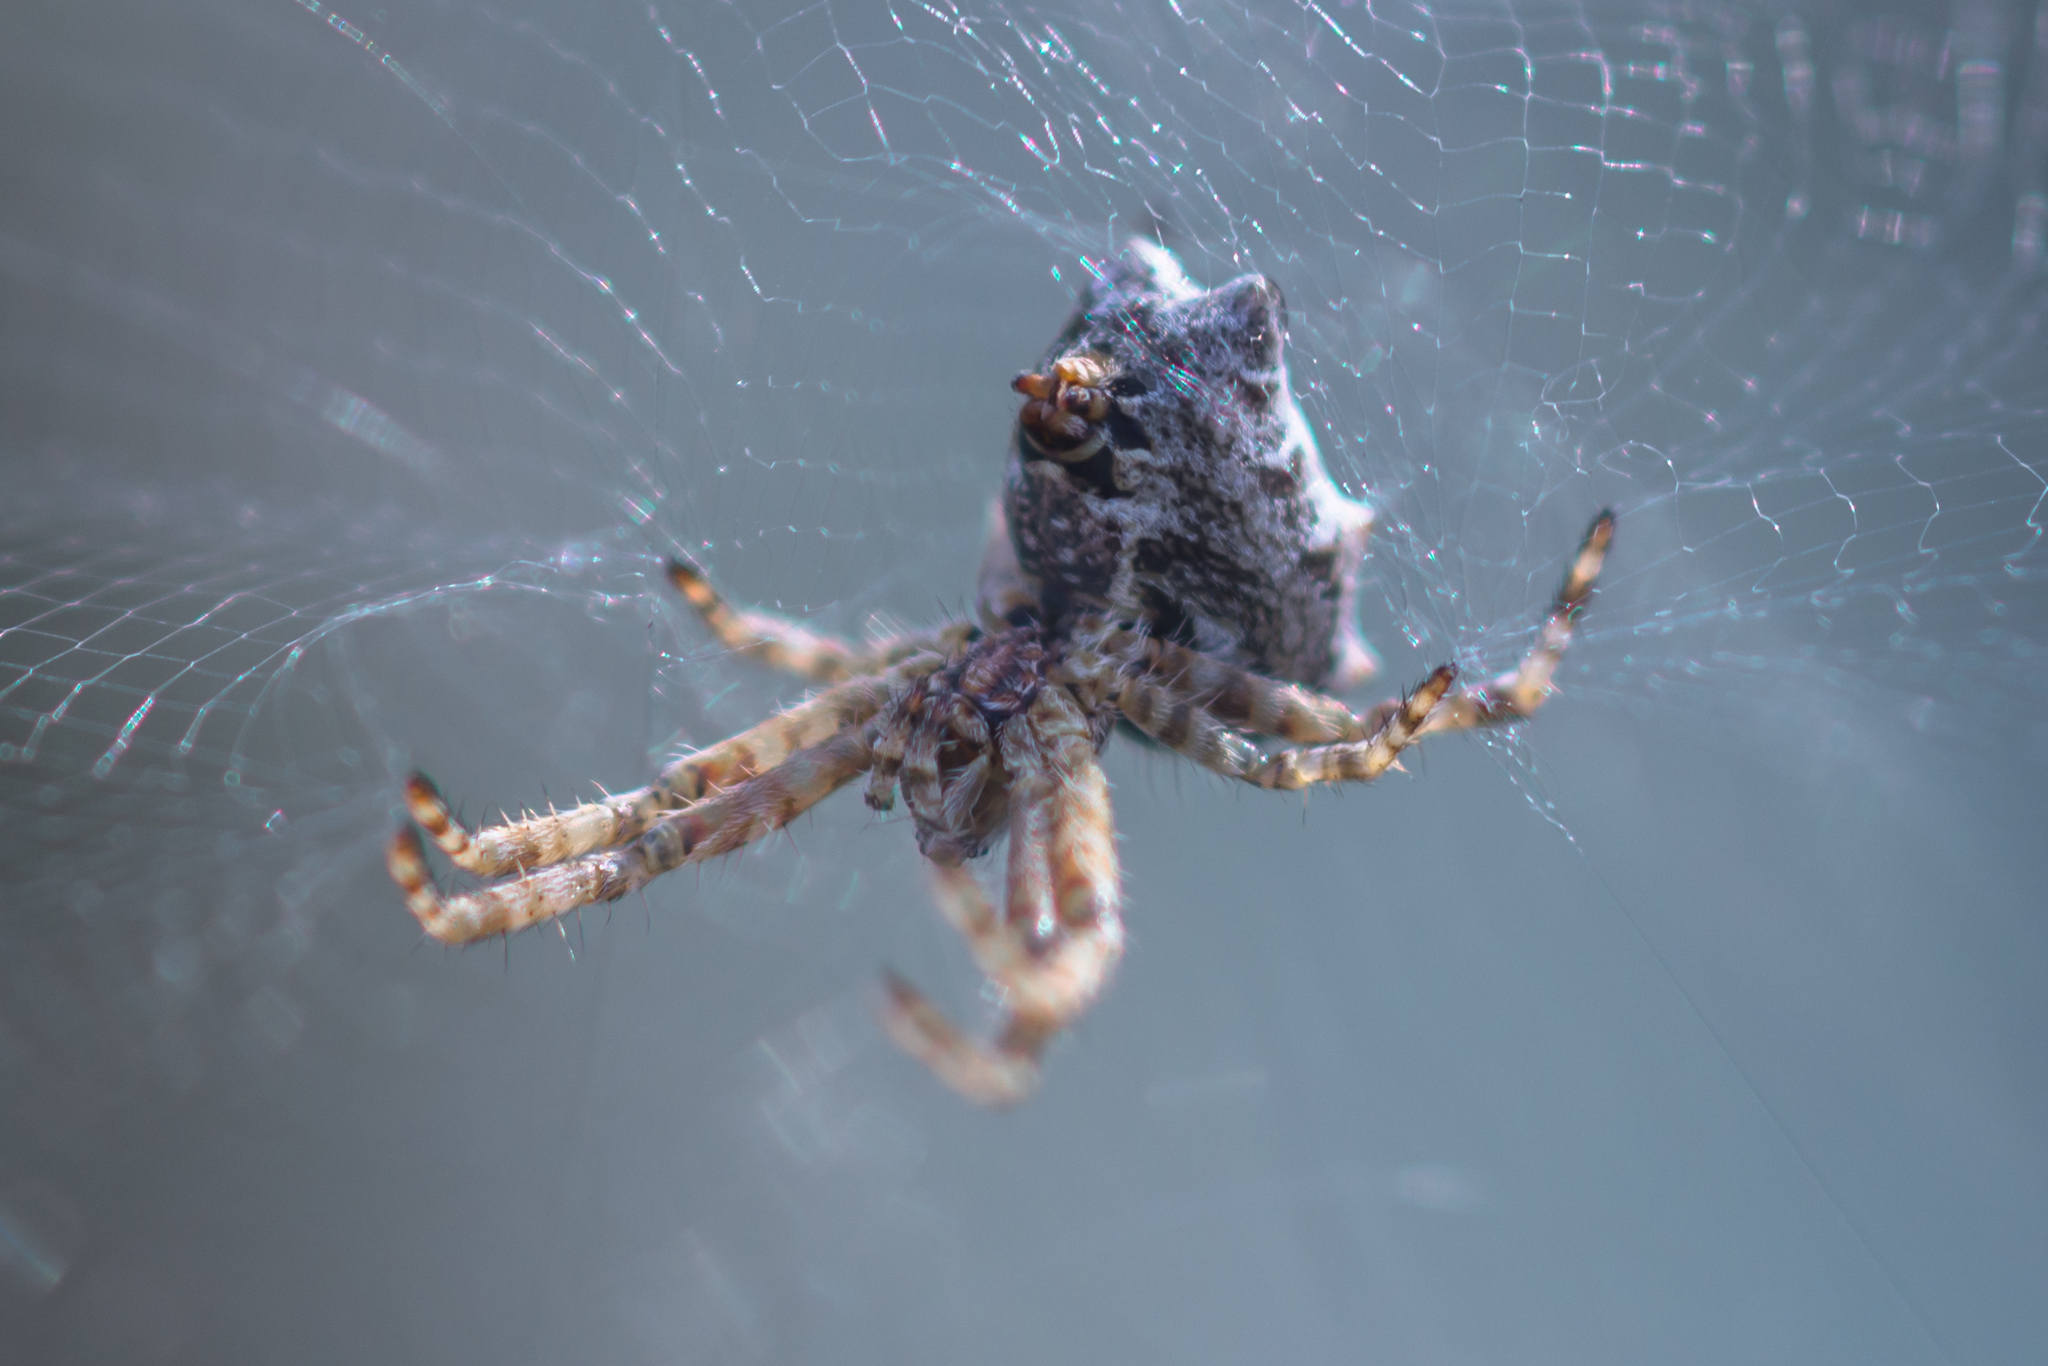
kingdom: Animalia
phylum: Arthropoda
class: Arachnida
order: Araneae
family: Araneidae
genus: Cyrtophora
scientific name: Cyrtophora citricola
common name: Orb weavers
